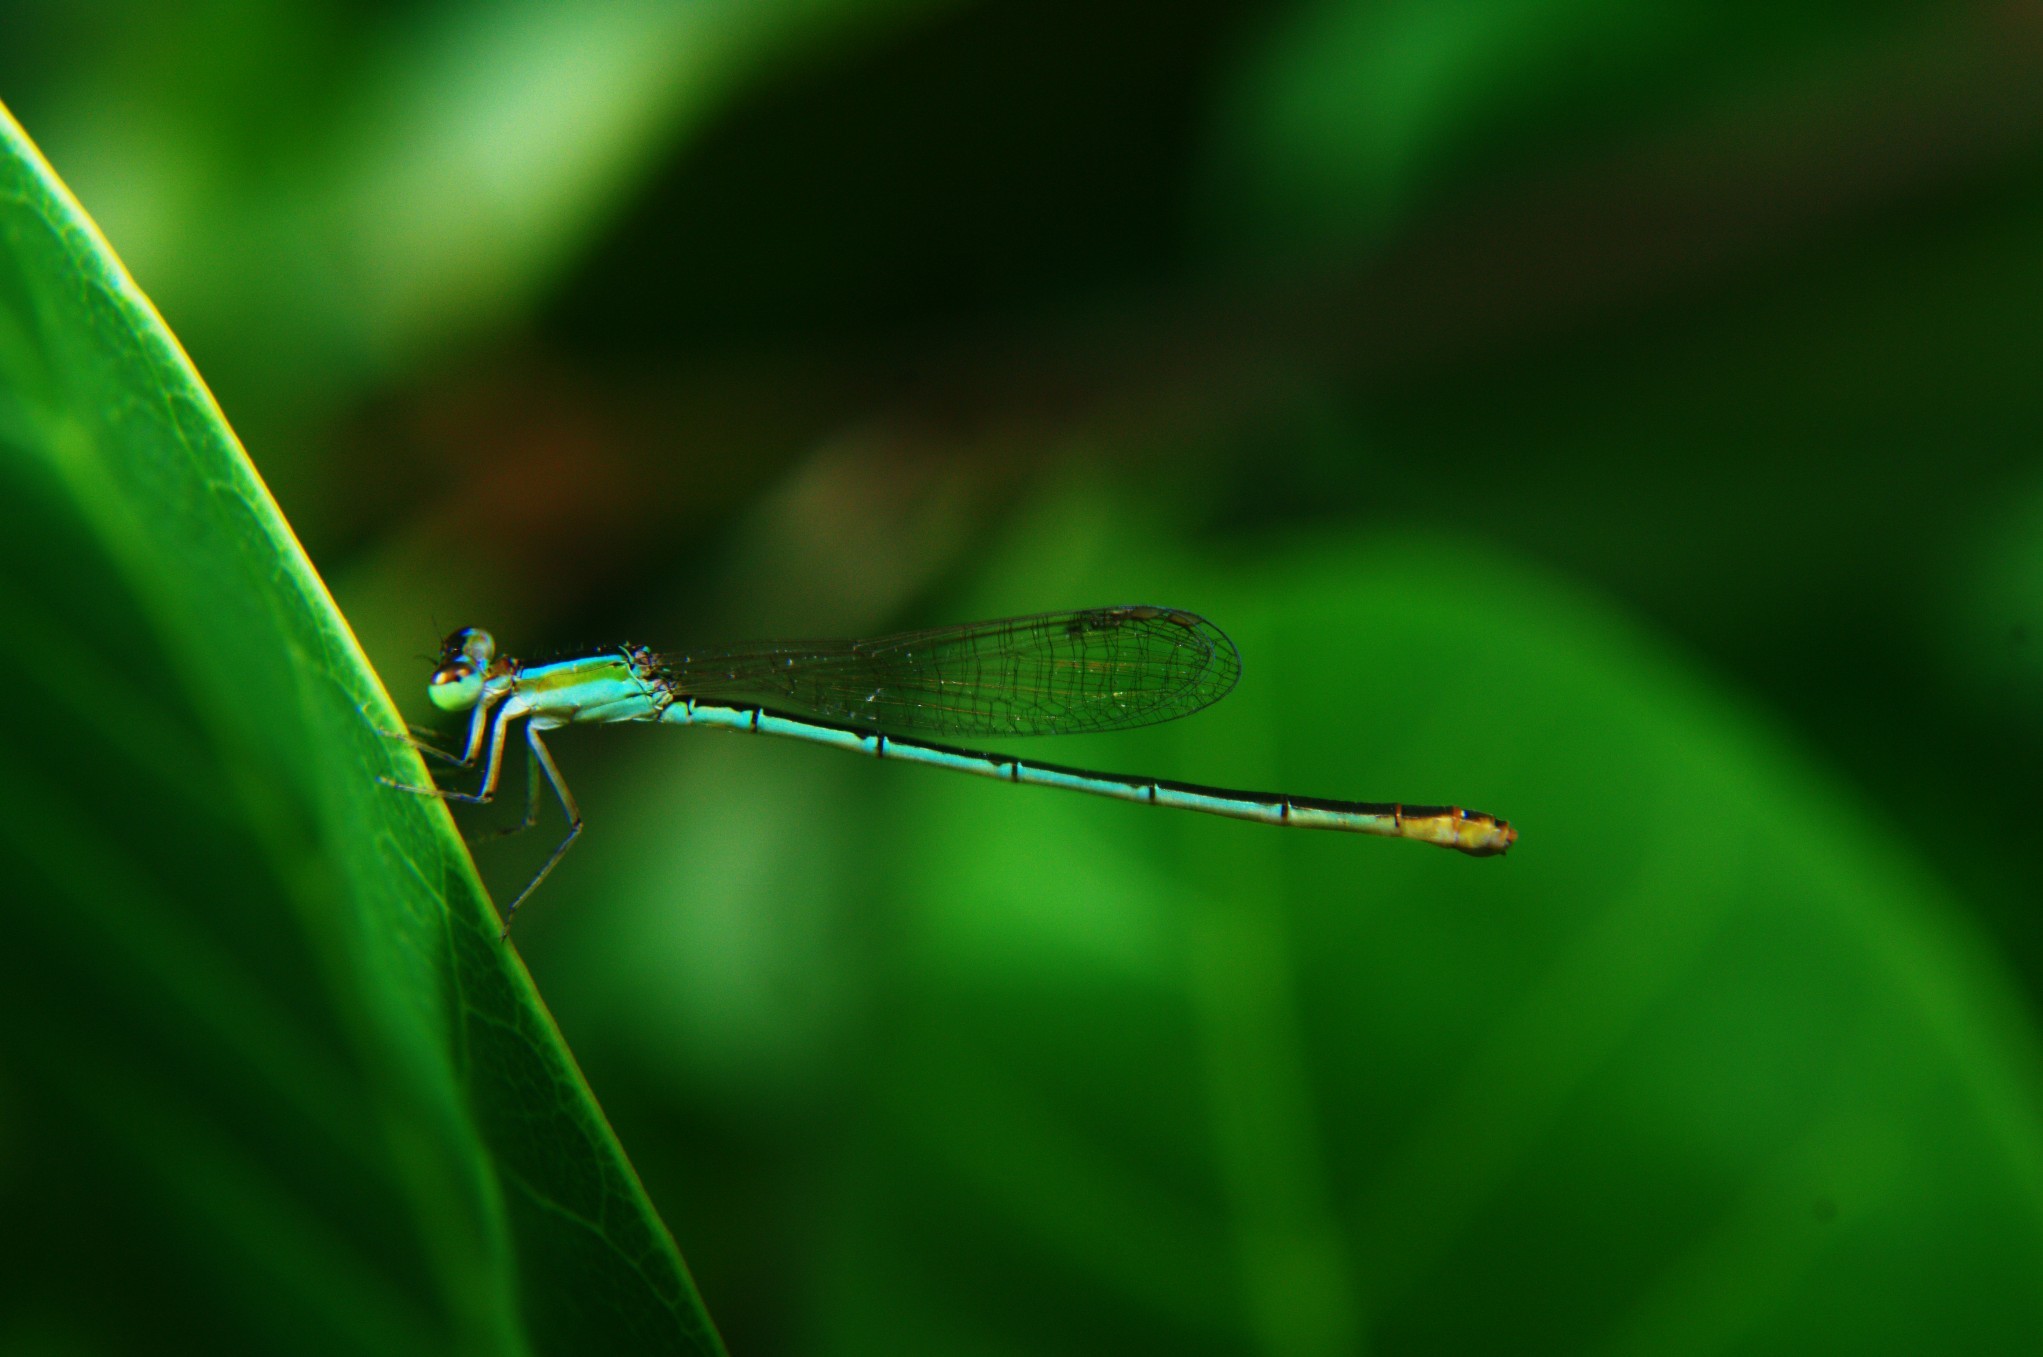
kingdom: Animalia
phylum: Arthropoda
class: Insecta
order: Odonata
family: Coenagrionidae
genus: Agriocnemis
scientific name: Agriocnemis pygmaea
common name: Pygmy wisp
